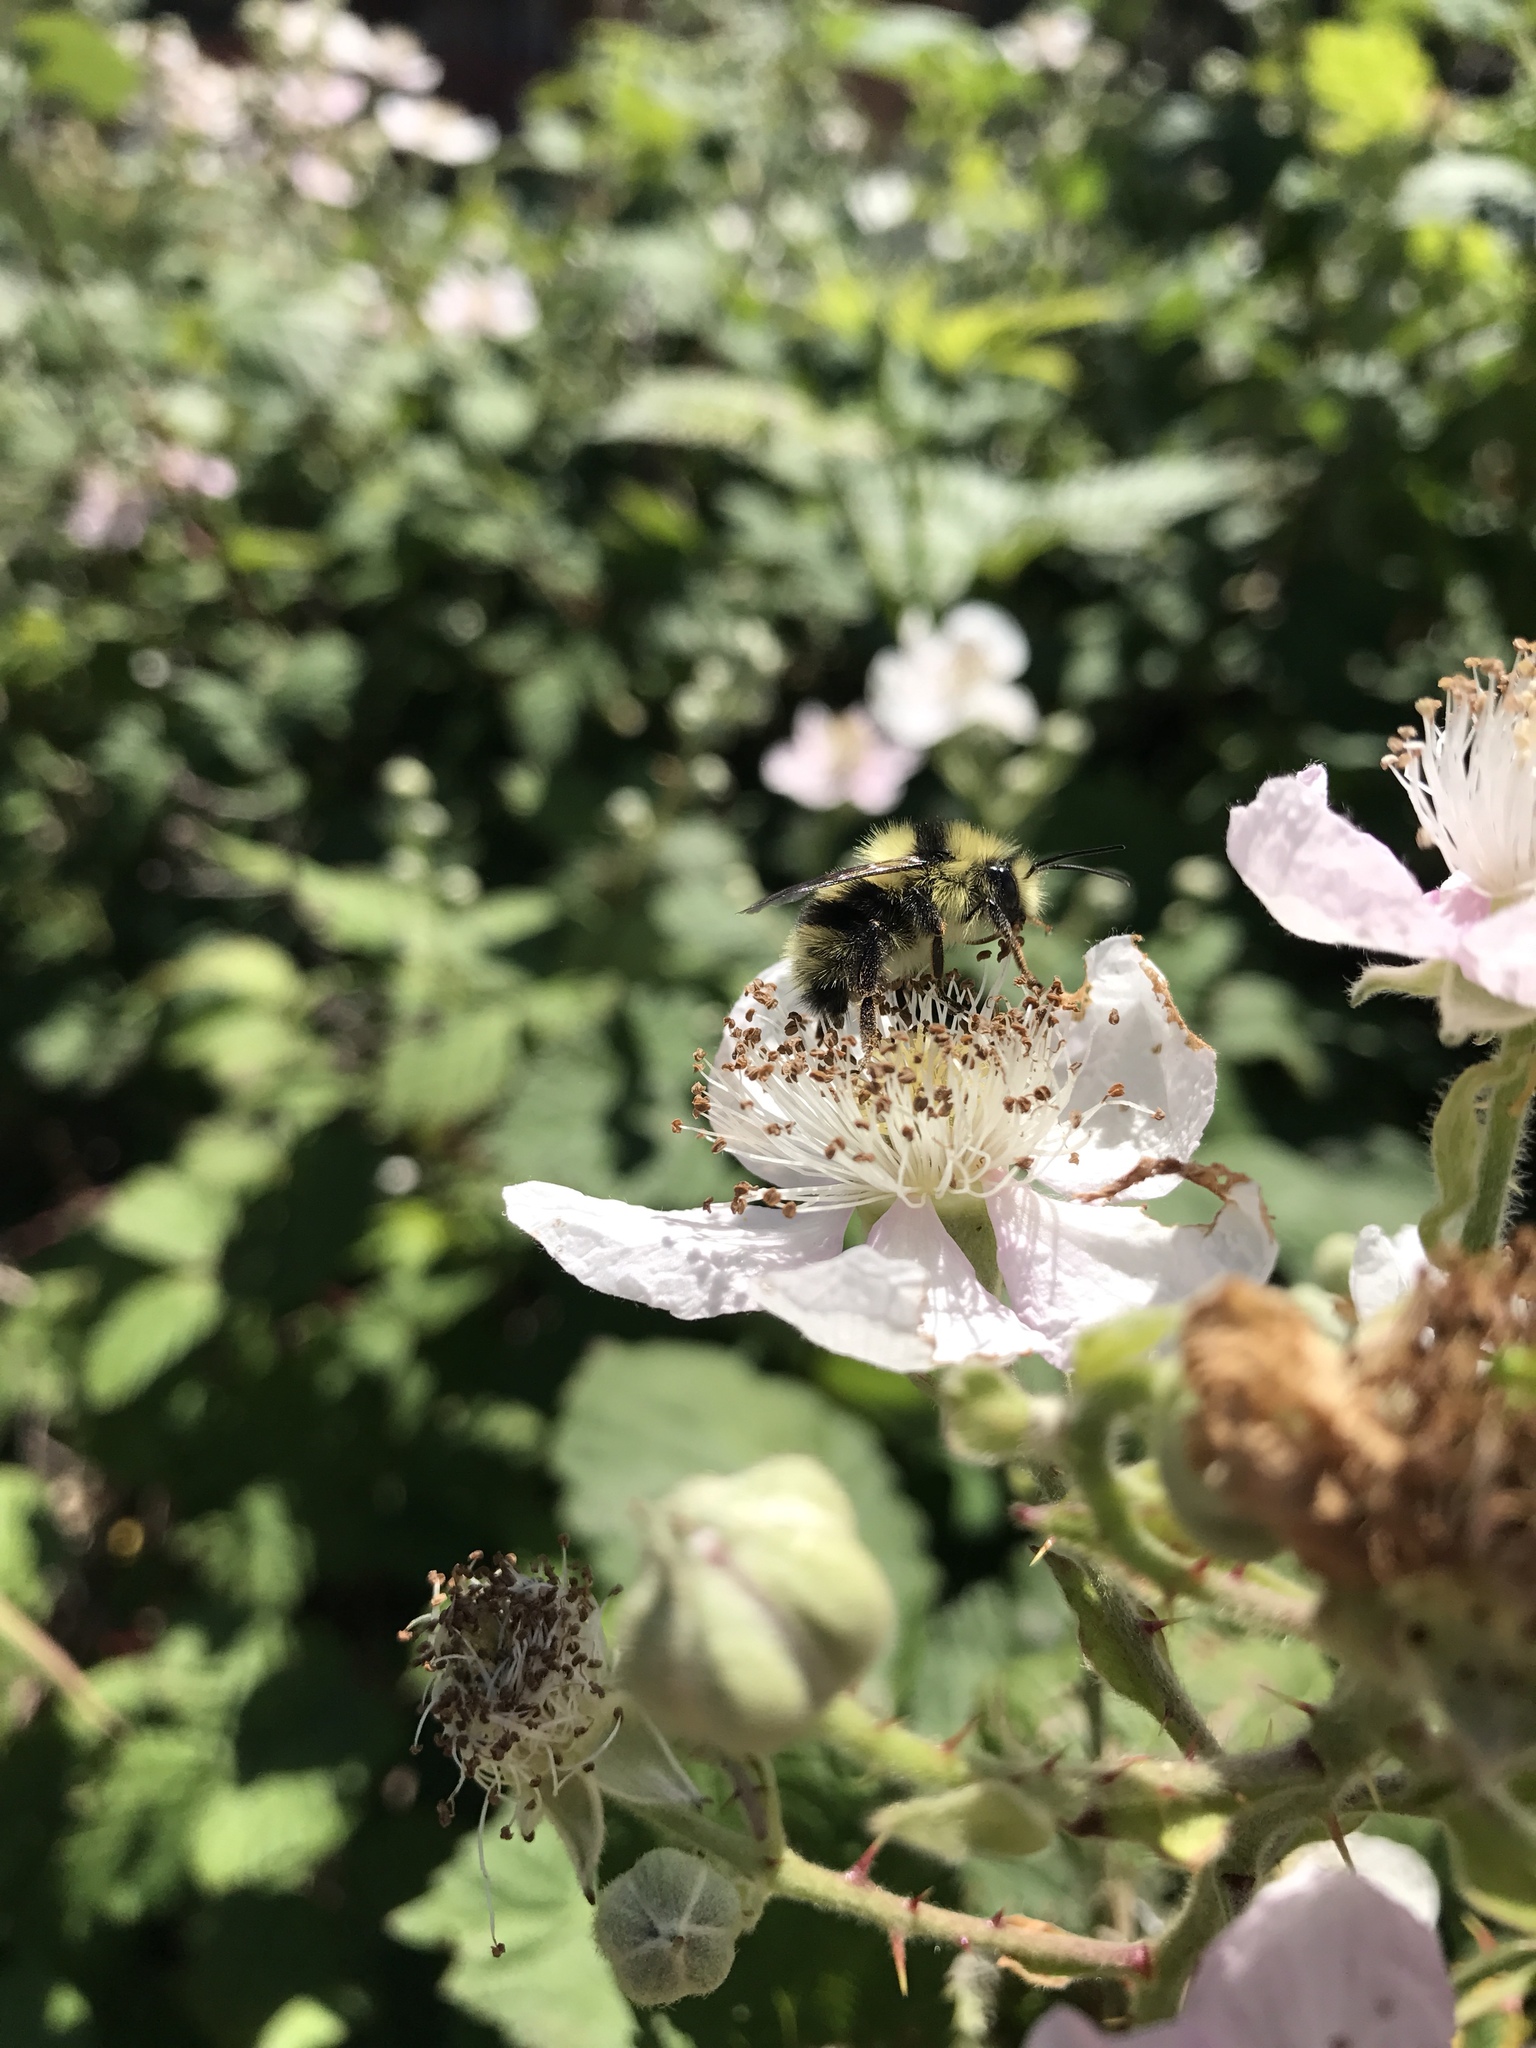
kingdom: Animalia
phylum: Arthropoda
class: Insecta
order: Hymenoptera
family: Apidae
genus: Bombus
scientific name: Bombus melanopygus
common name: Black tail bumble bee
